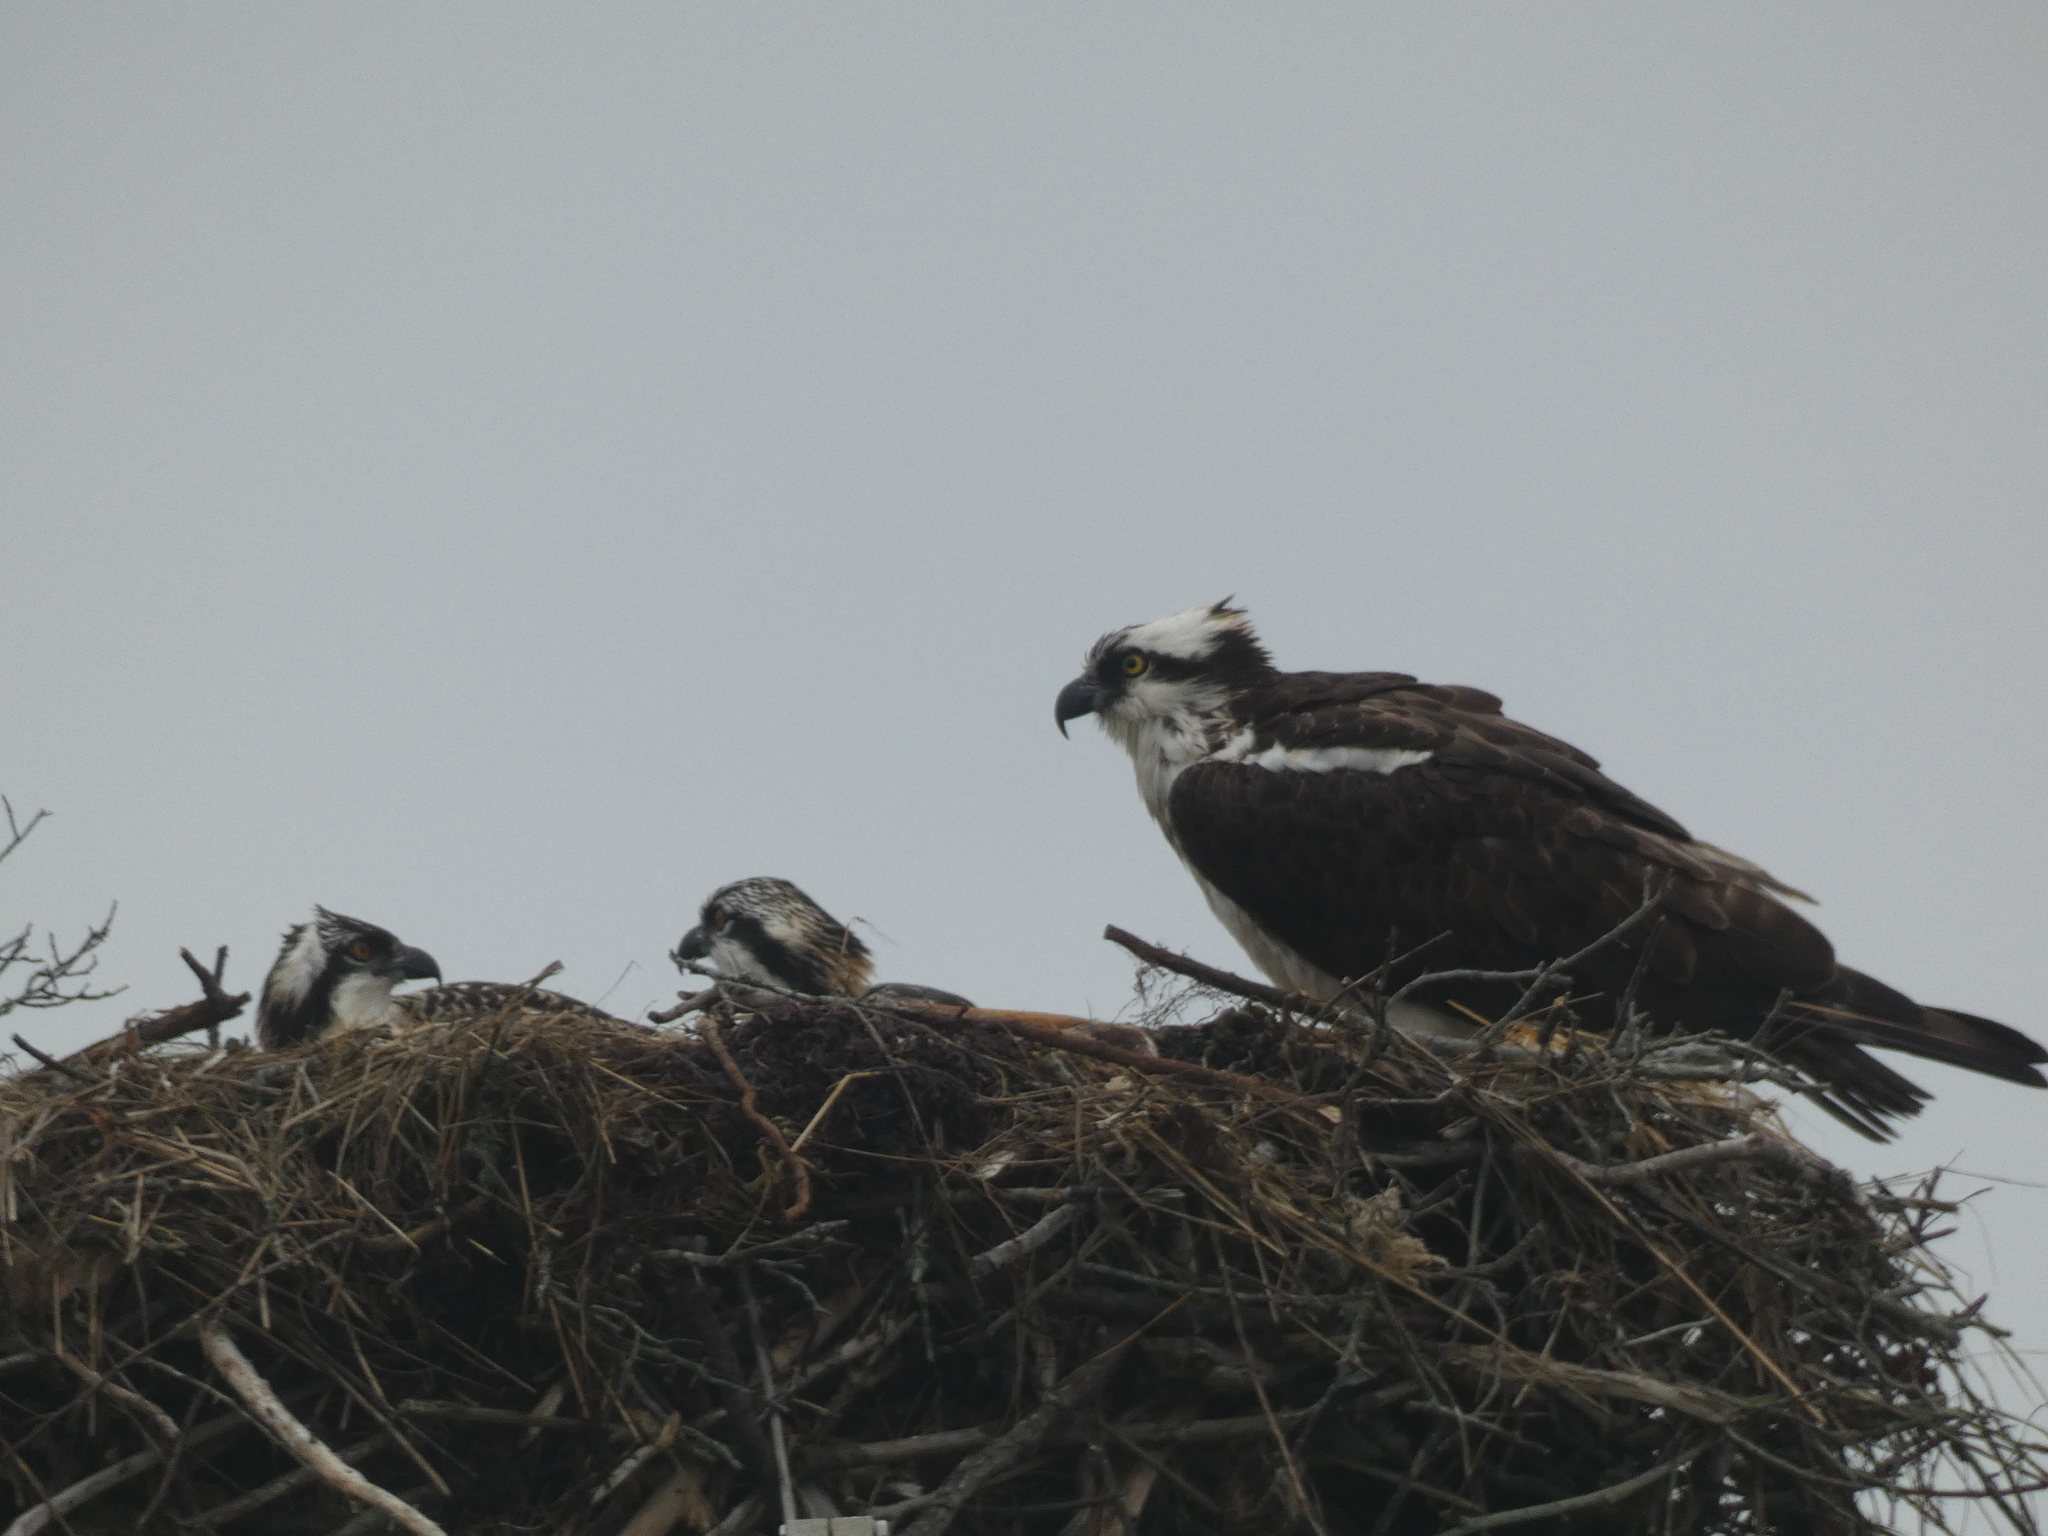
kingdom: Animalia
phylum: Chordata
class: Aves
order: Accipitriformes
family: Pandionidae
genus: Pandion
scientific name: Pandion haliaetus
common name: Osprey
